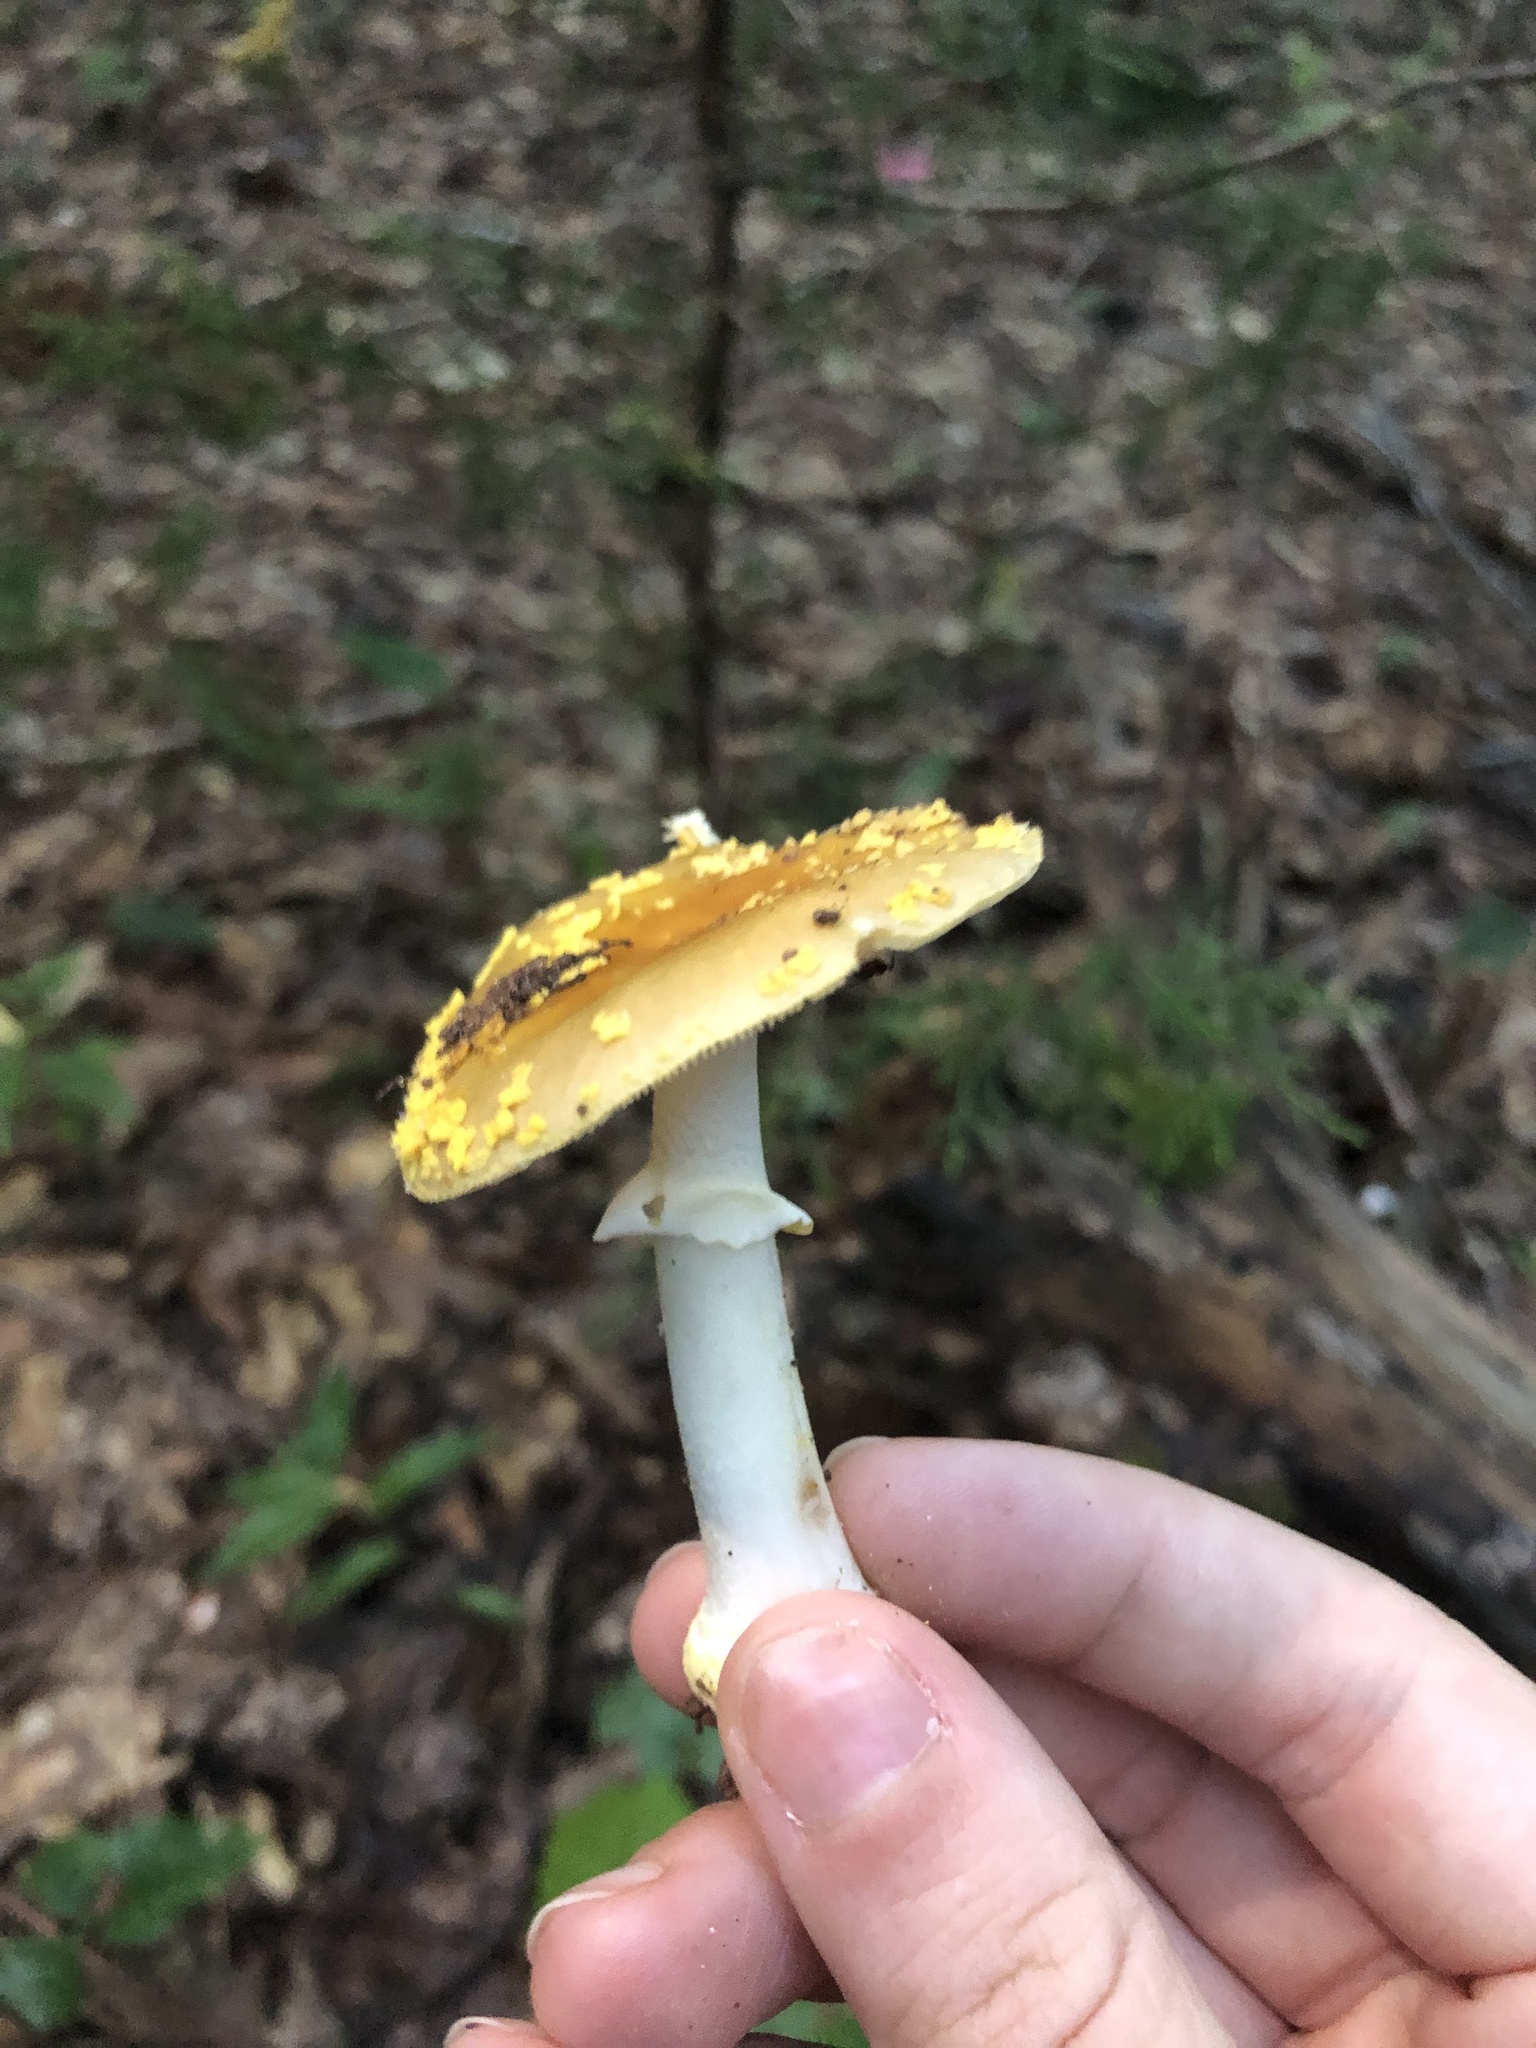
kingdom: Fungi
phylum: Basidiomycota
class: Agaricomycetes
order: Agaricales
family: Amanitaceae
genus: Amanita
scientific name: Amanita flavorubens
